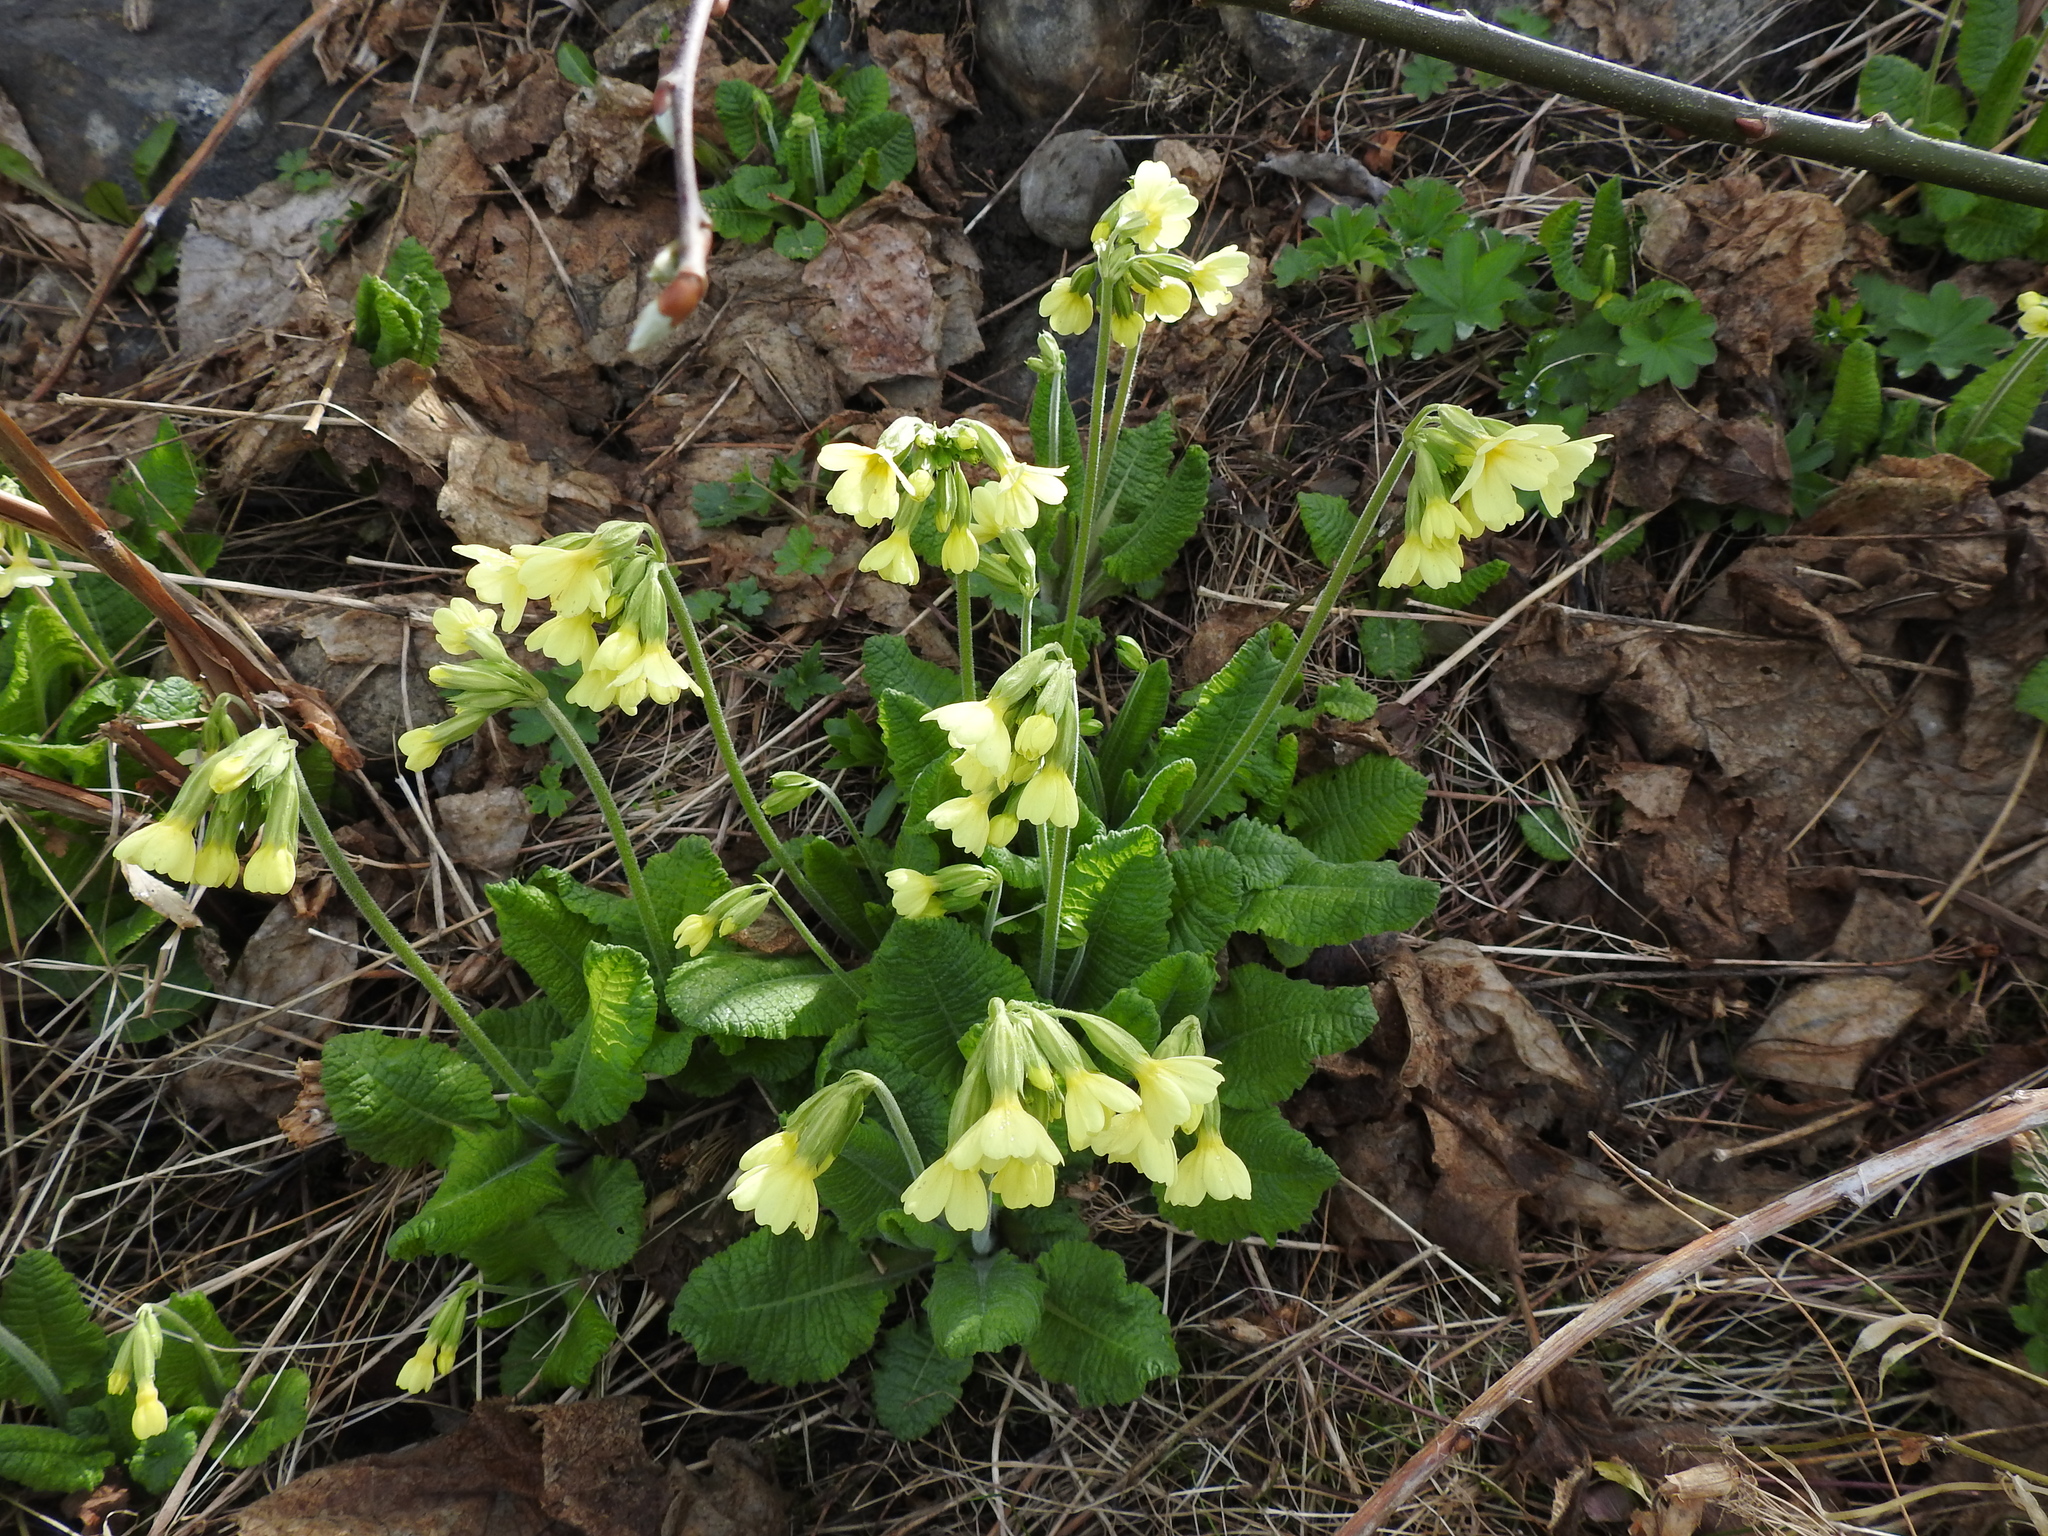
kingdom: Plantae
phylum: Tracheophyta
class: Magnoliopsida
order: Ericales
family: Primulaceae
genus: Primula
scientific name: Primula elatior
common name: Oxlip
